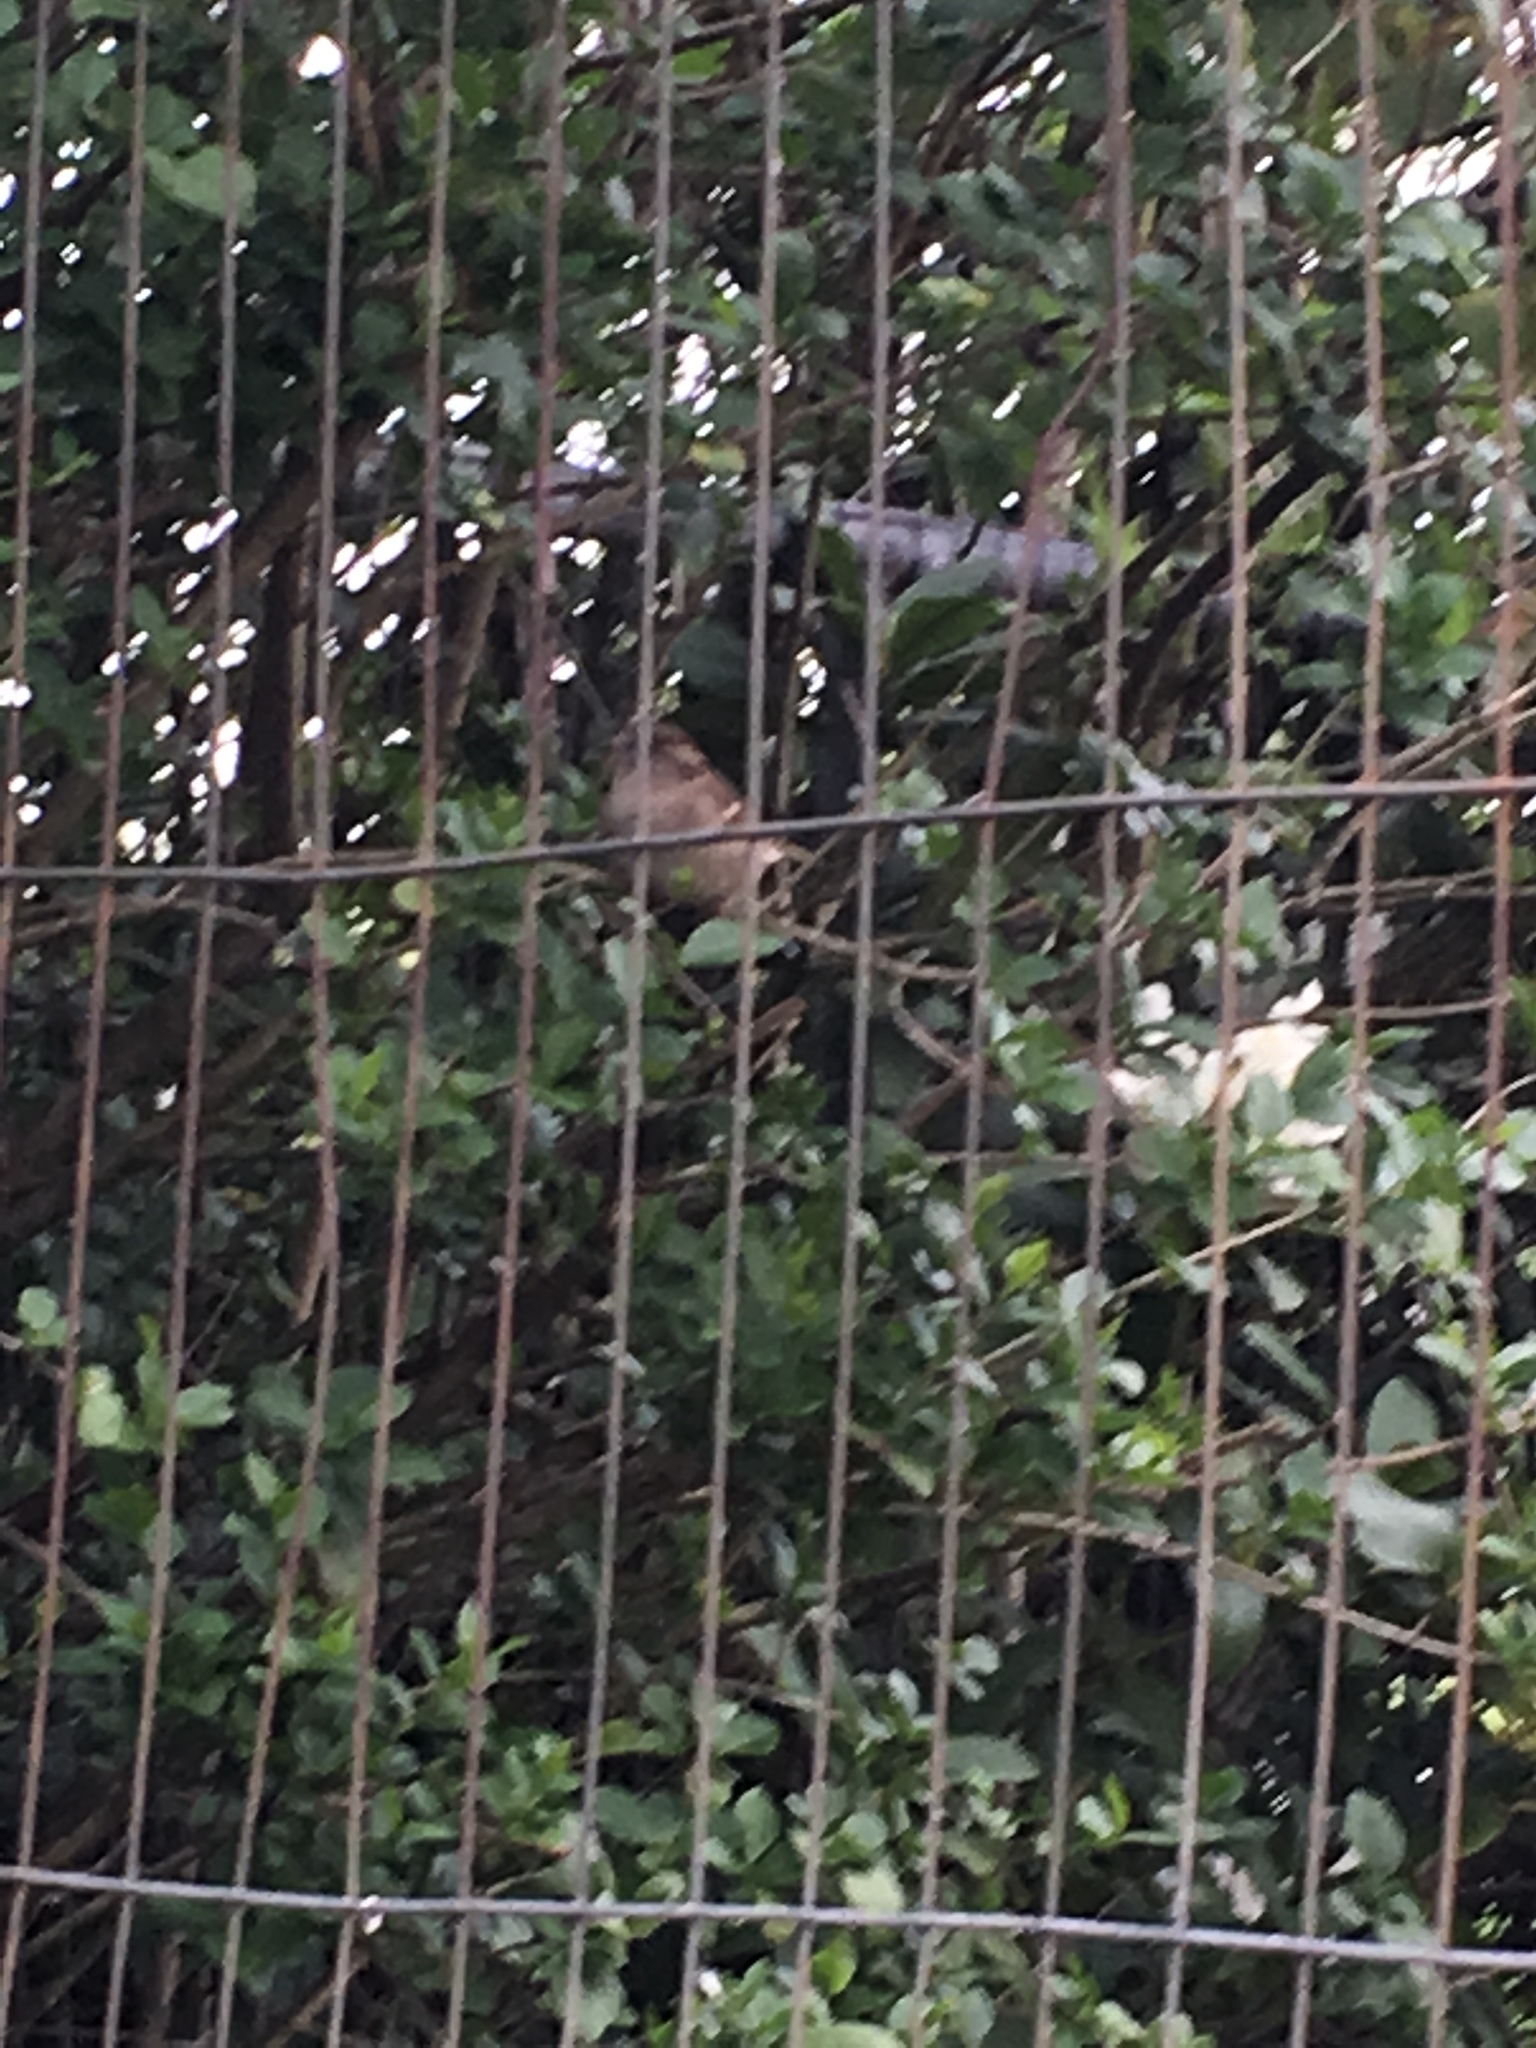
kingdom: Animalia
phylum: Chordata
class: Aves
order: Passeriformes
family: Passeridae
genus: Passer
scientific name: Passer domesticus
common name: House sparrow
